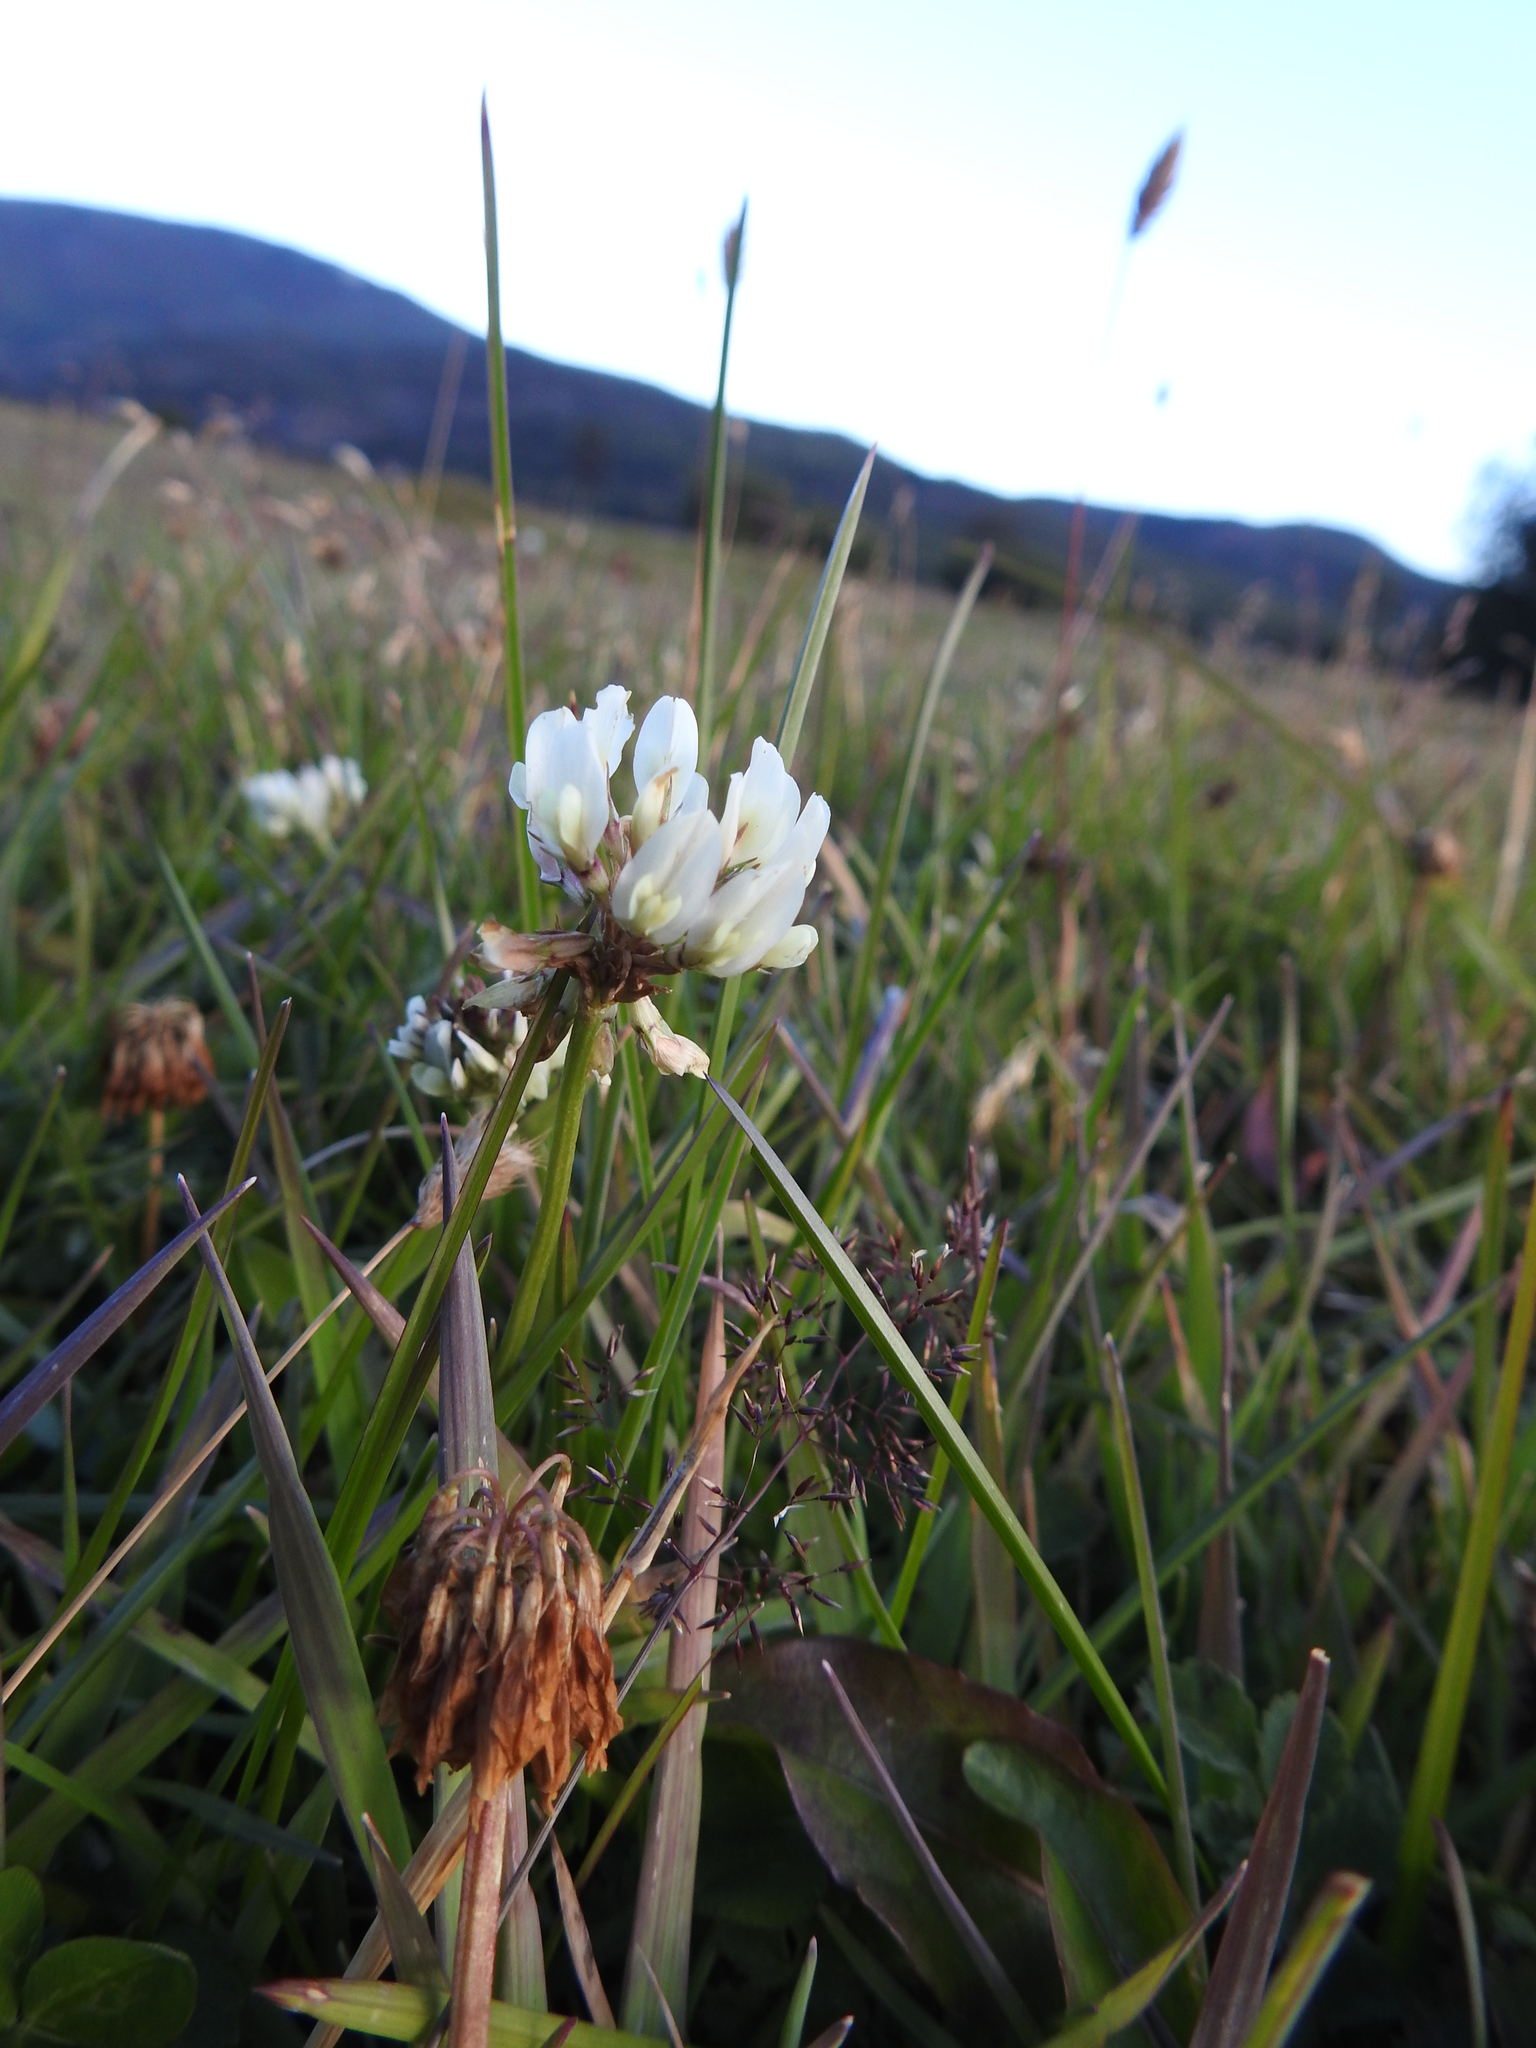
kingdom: Plantae
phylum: Tracheophyta
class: Magnoliopsida
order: Fabales
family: Fabaceae
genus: Trifolium
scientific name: Trifolium repens
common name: White clover
